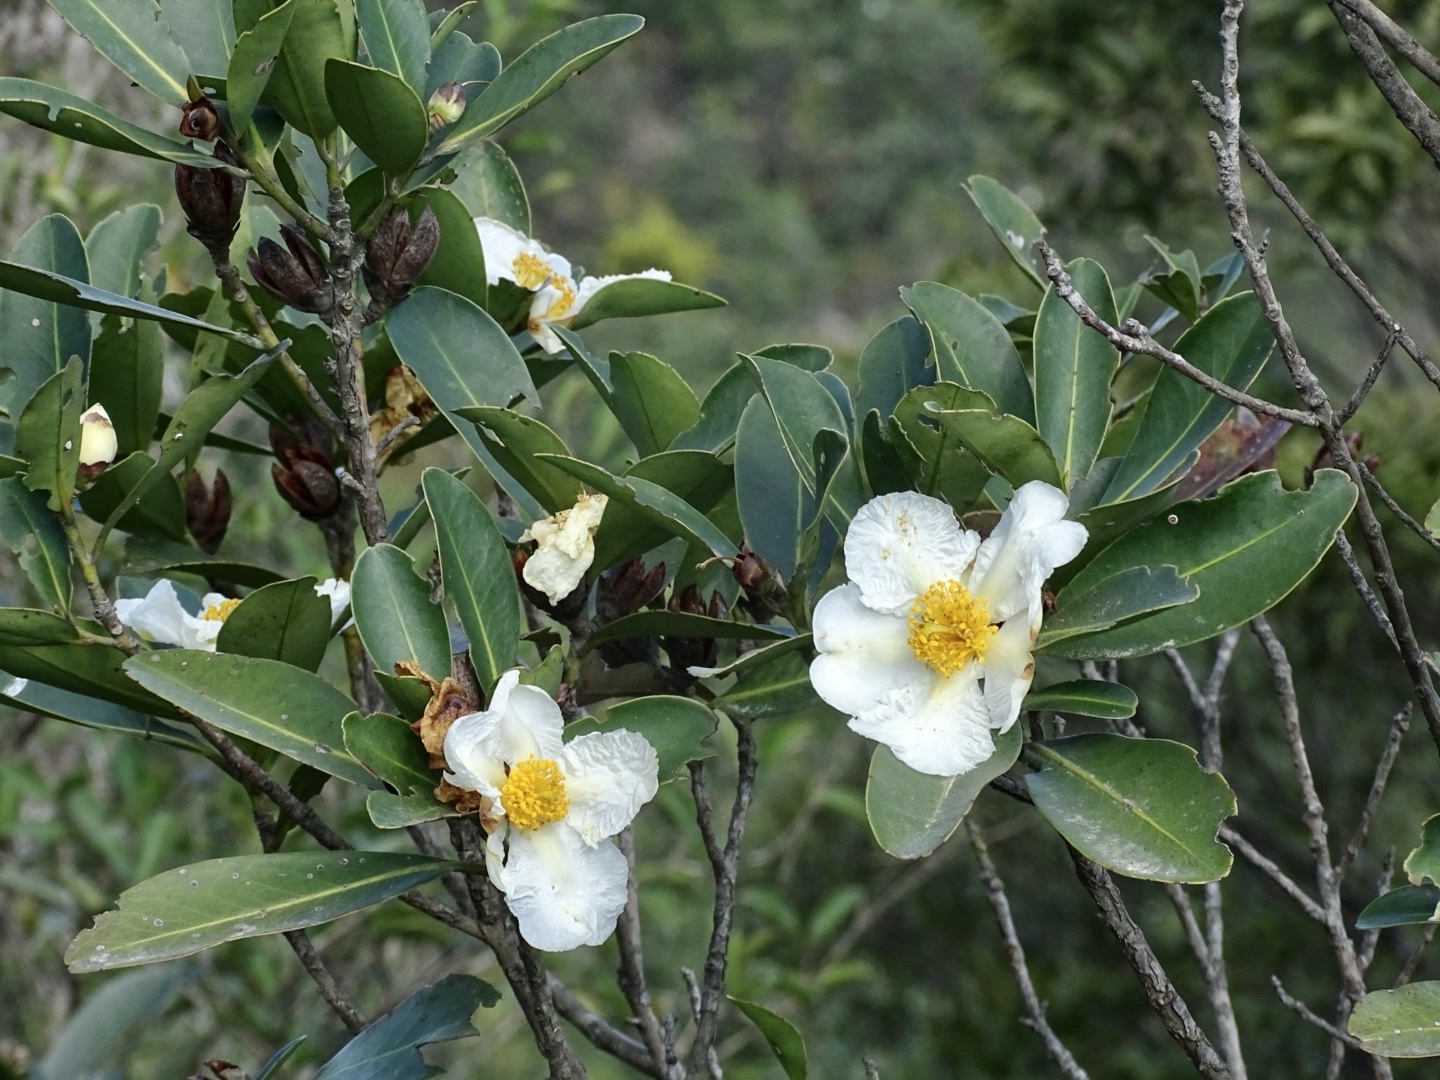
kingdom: Plantae
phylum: Tracheophyta
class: Magnoliopsida
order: Ericales
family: Theaceae
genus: Polyspora
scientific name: Polyspora axillaris
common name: Fried egg tree
